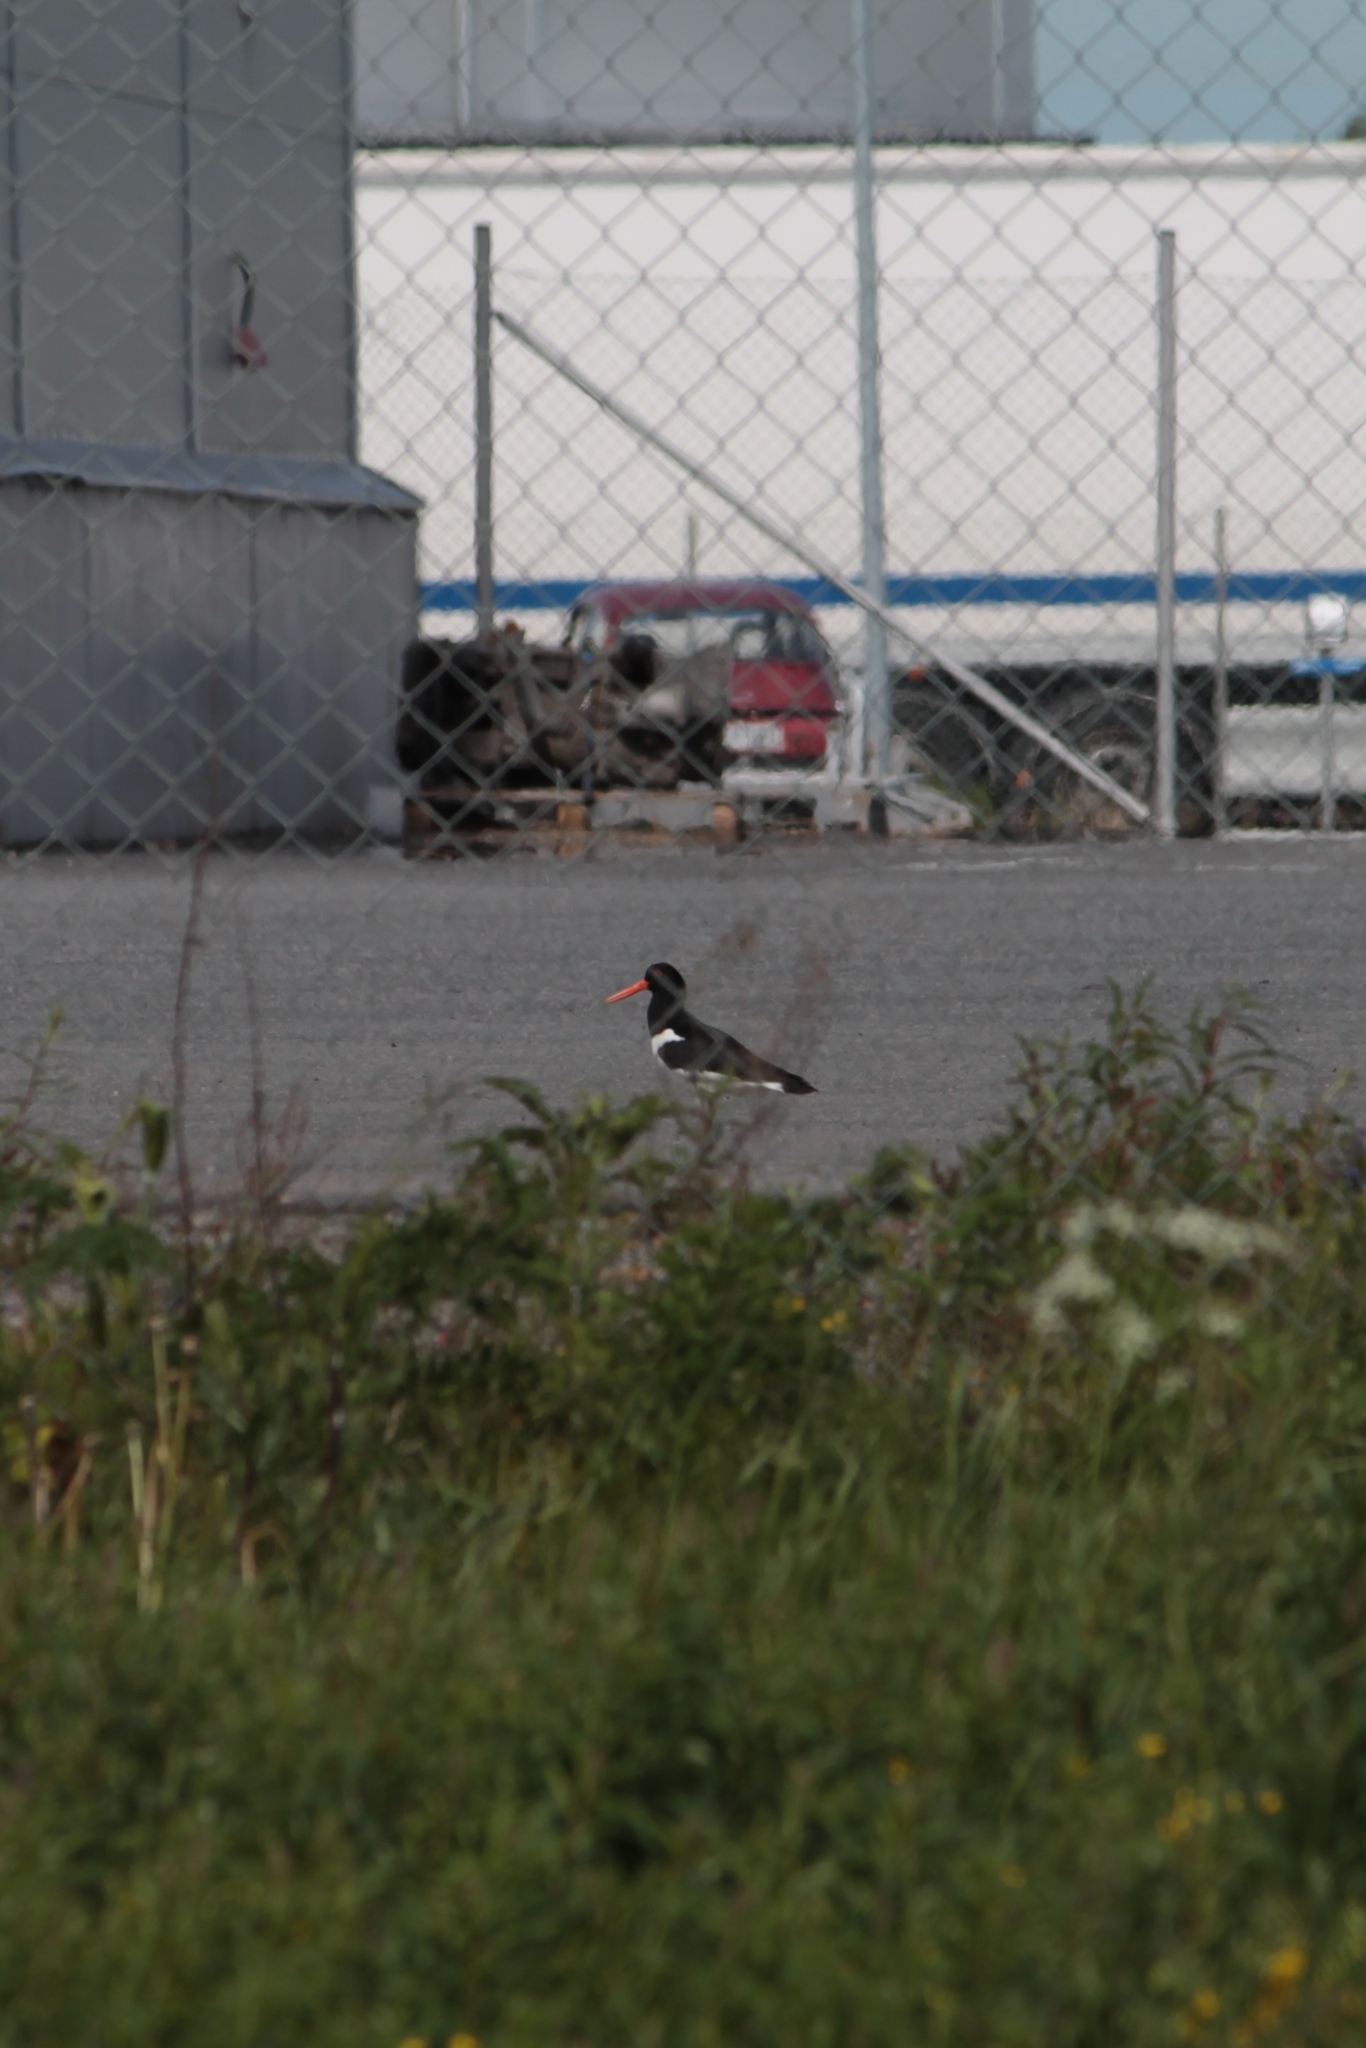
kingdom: Animalia
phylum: Chordata
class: Aves
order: Charadriiformes
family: Haematopodidae
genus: Haematopus
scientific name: Haematopus ostralegus
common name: Eurasian oystercatcher
